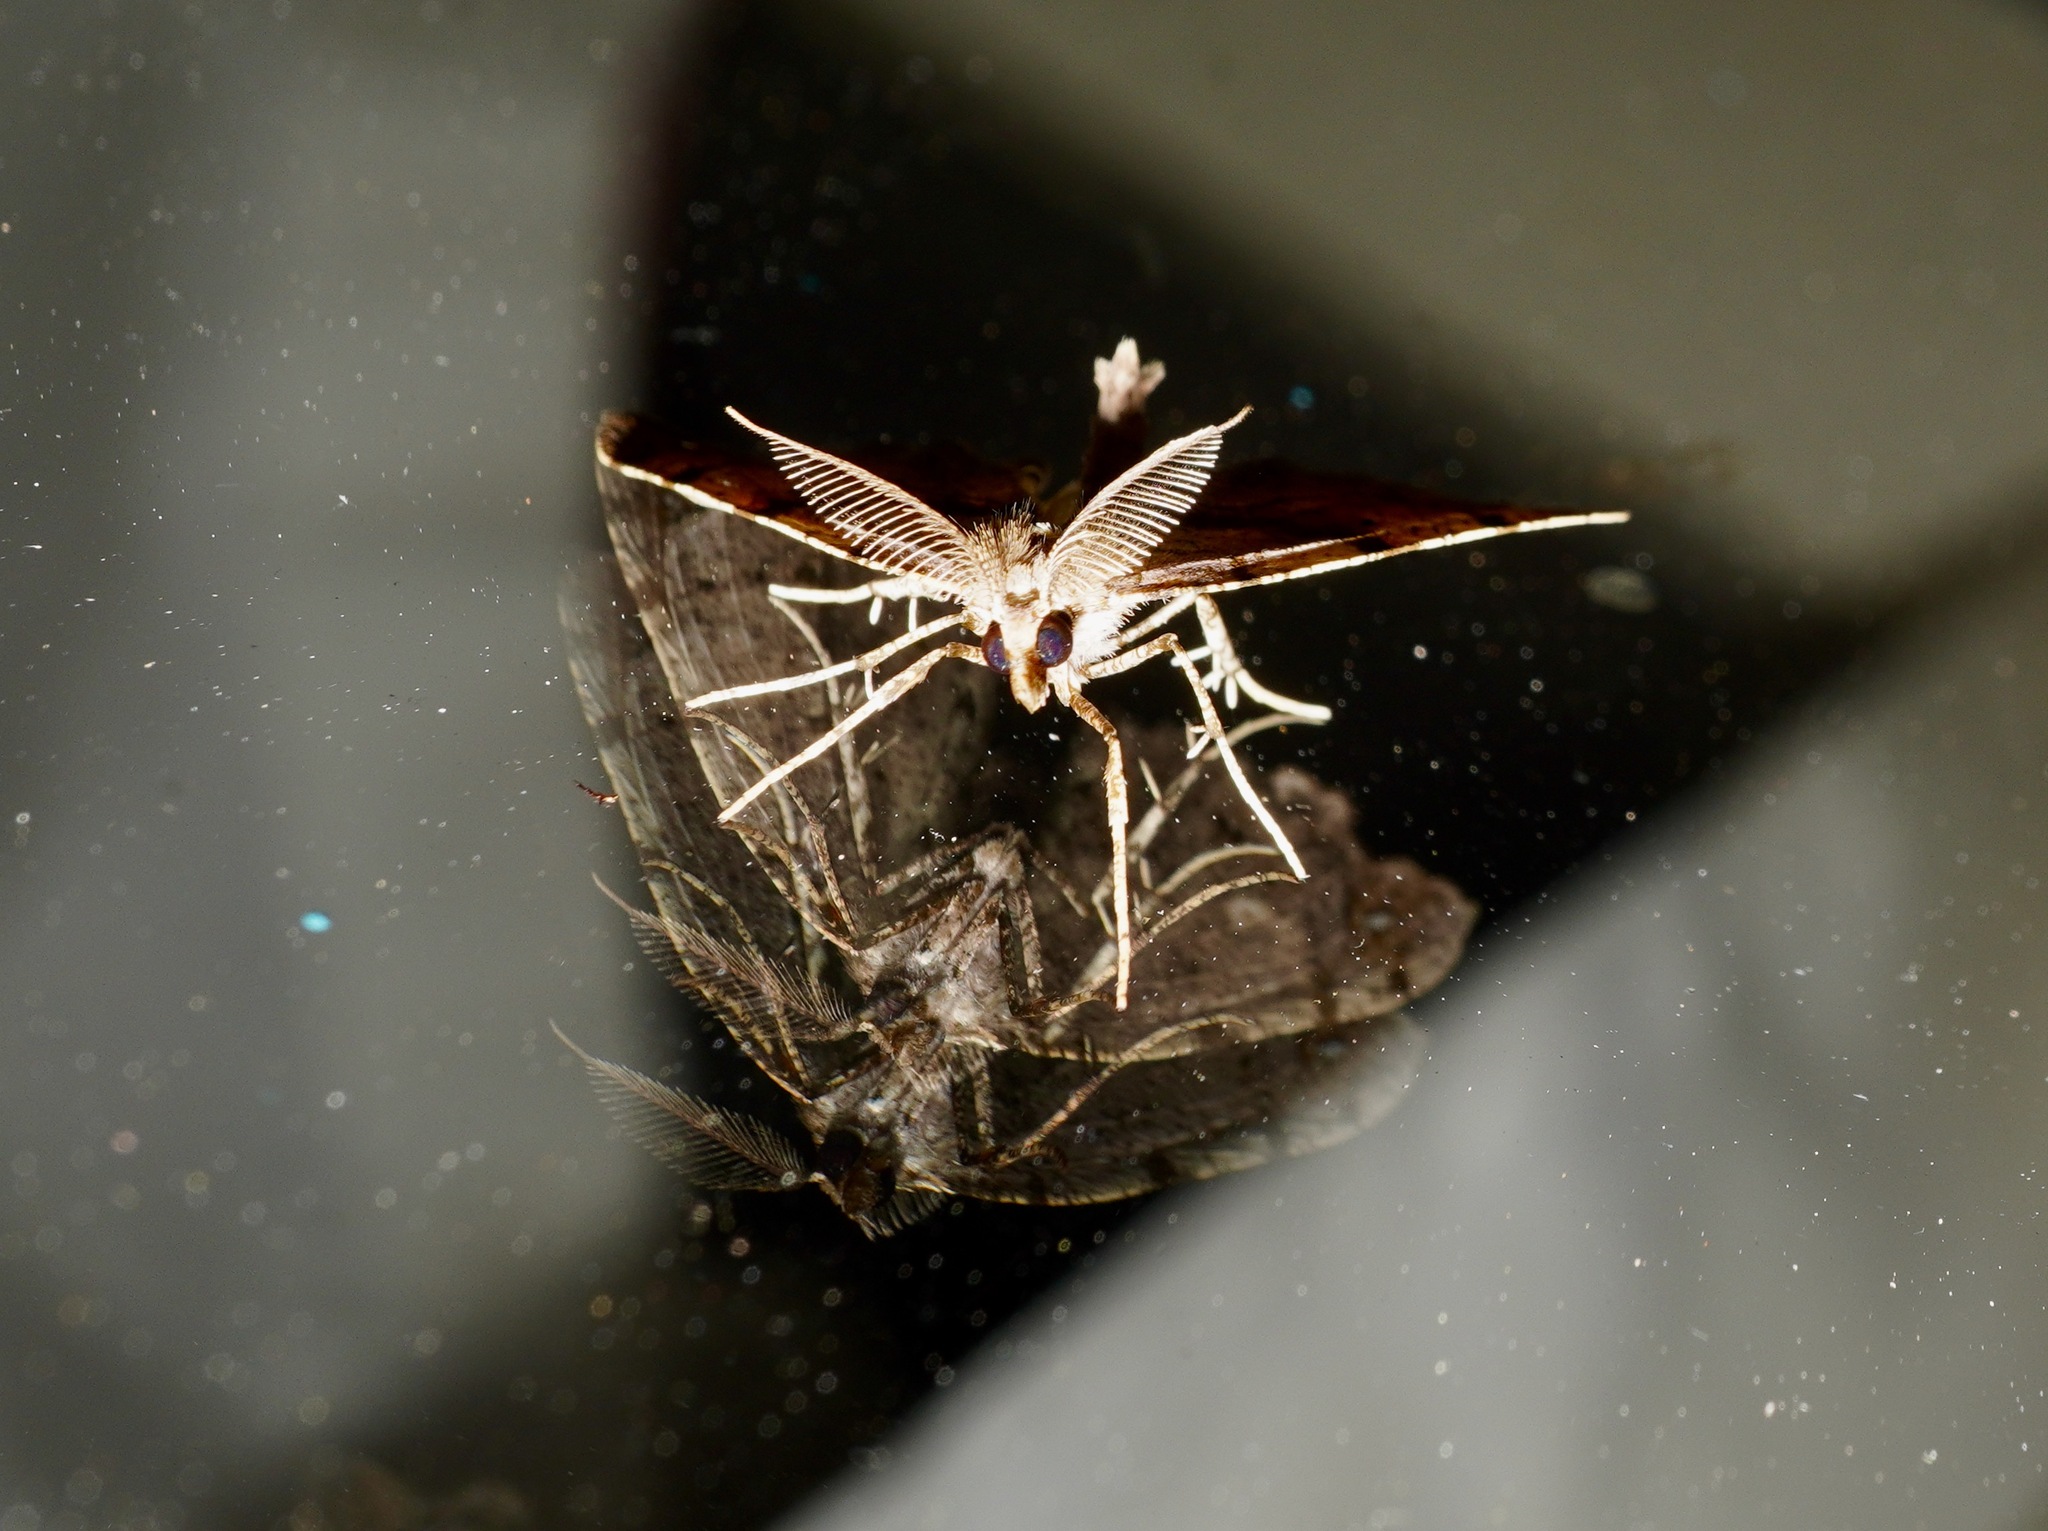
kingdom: Animalia
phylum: Arthropoda
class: Insecta
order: Lepidoptera
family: Geometridae
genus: Chalastra
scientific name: Chalastra pellurgata
